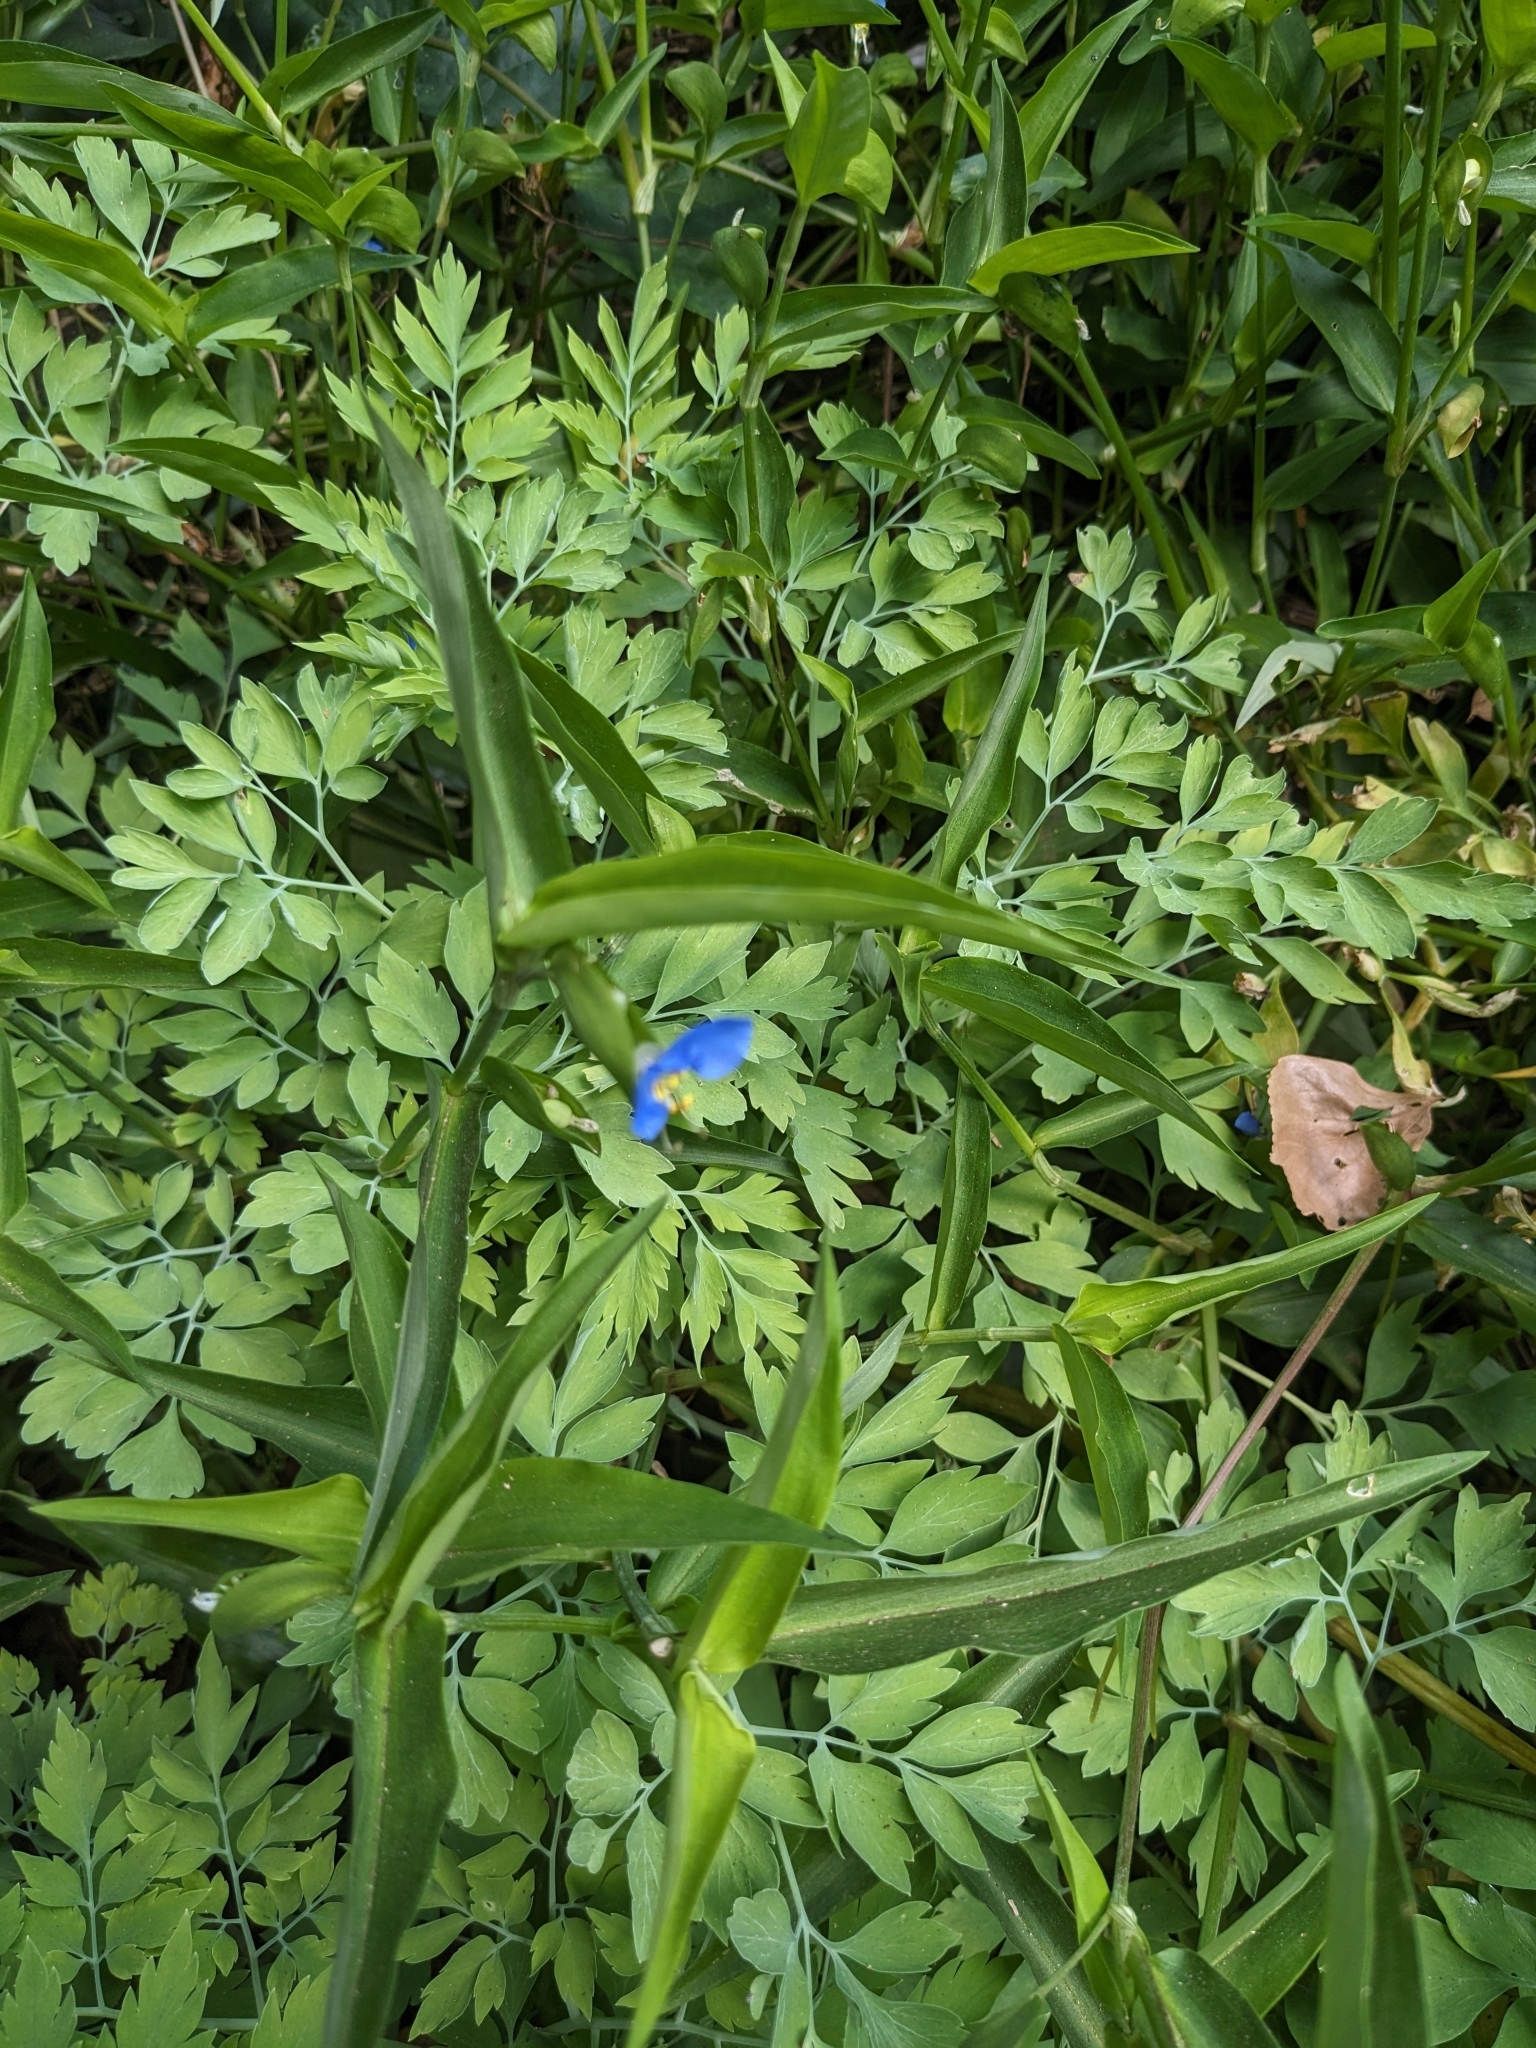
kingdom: Plantae
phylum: Tracheophyta
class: Liliopsida
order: Commelinales
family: Commelinaceae
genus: Commelina
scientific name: Commelina communis
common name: Asiatic dayflower
